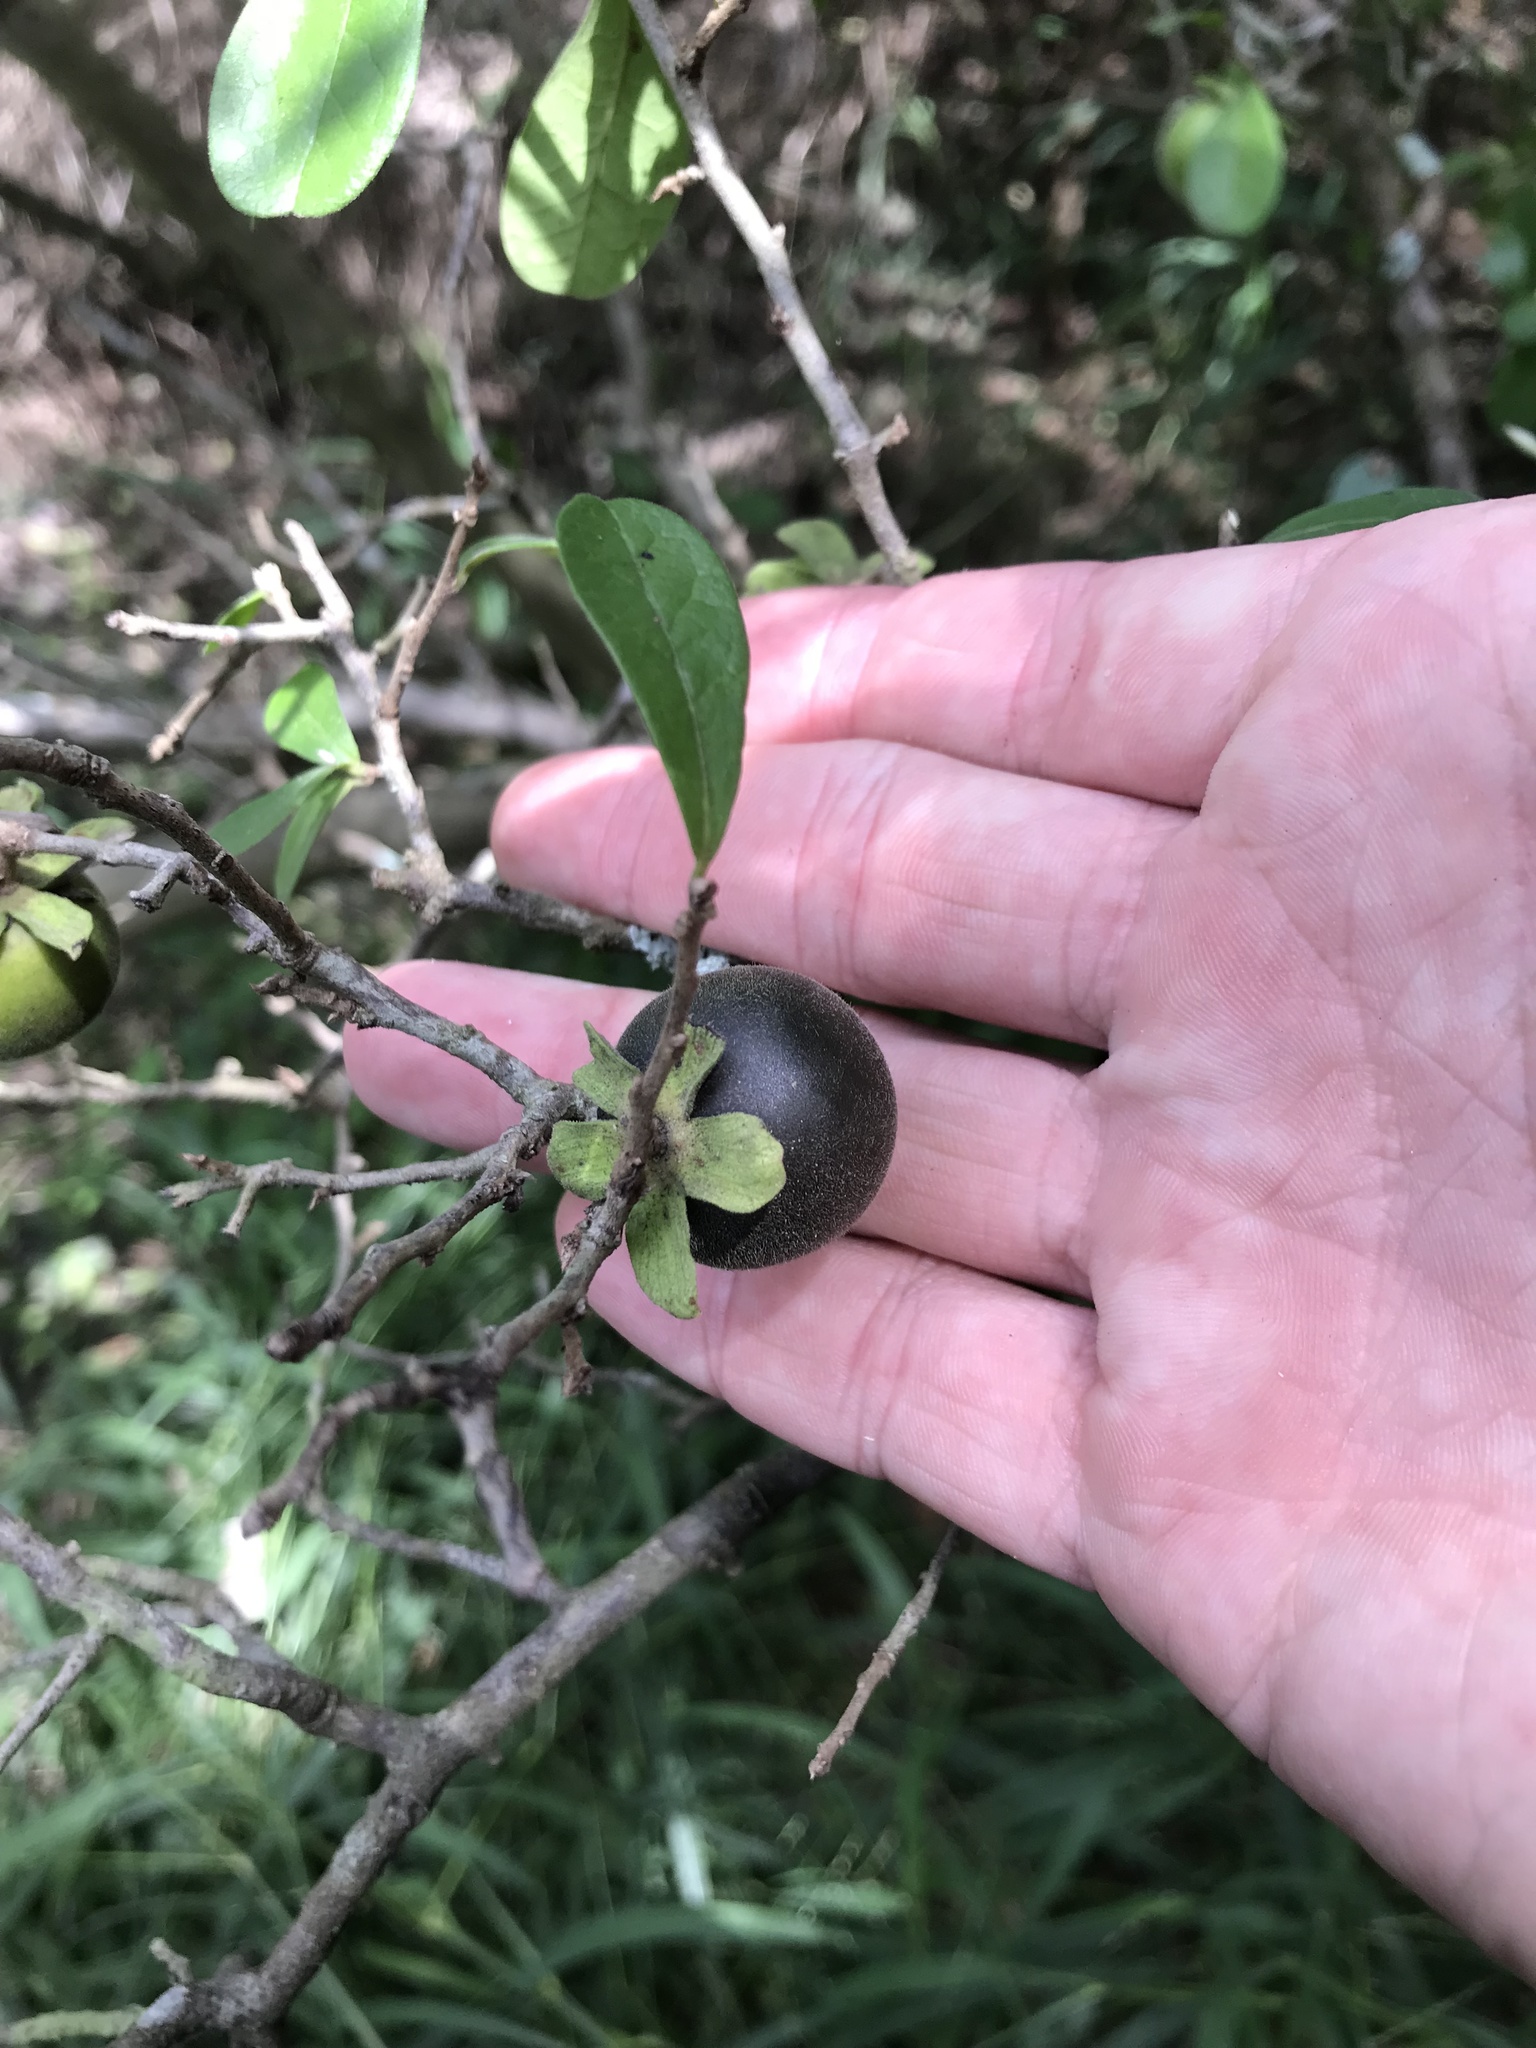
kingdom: Plantae
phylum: Tracheophyta
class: Magnoliopsida
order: Ericales
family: Ebenaceae
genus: Diospyros
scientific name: Diospyros texana
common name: Texas persimmon
